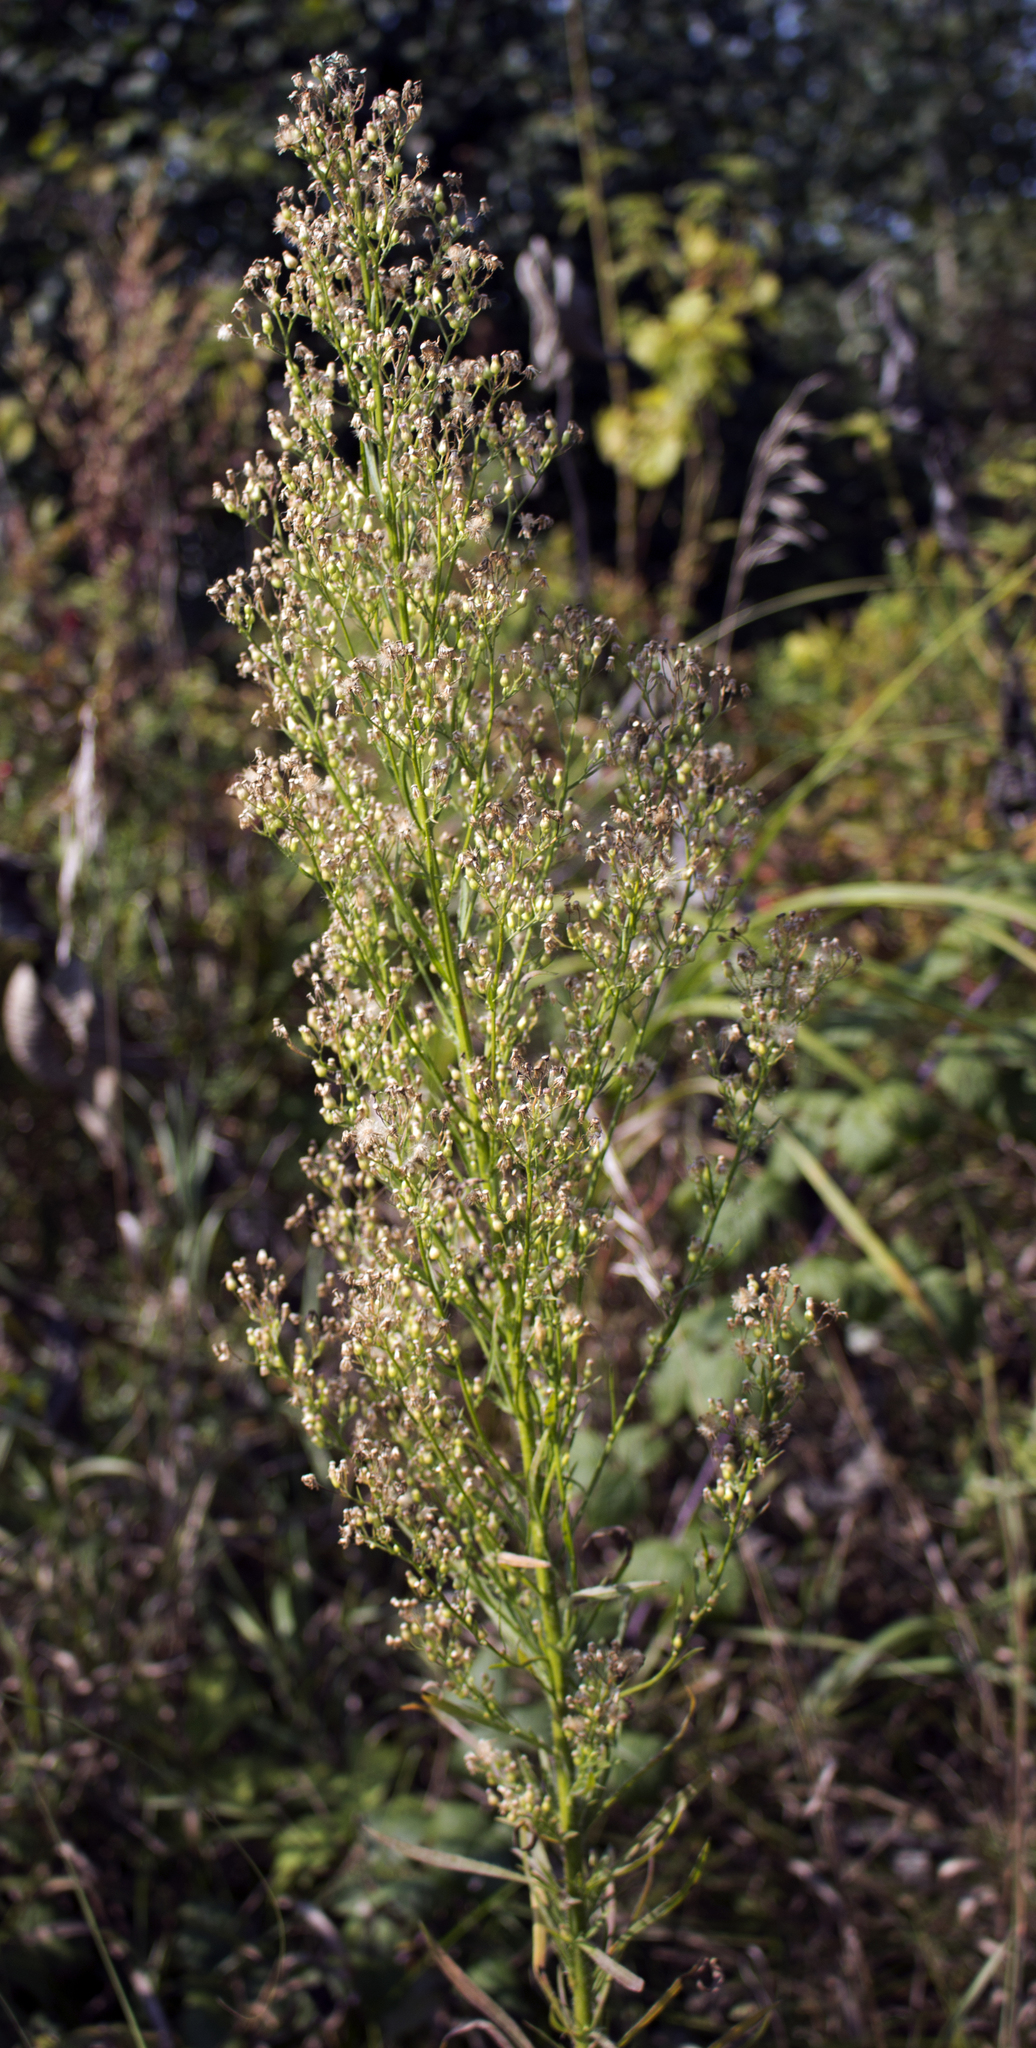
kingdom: Plantae
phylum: Tracheophyta
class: Magnoliopsida
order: Asterales
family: Asteraceae
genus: Erigeron
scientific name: Erigeron canadensis
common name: Canadian fleabane
